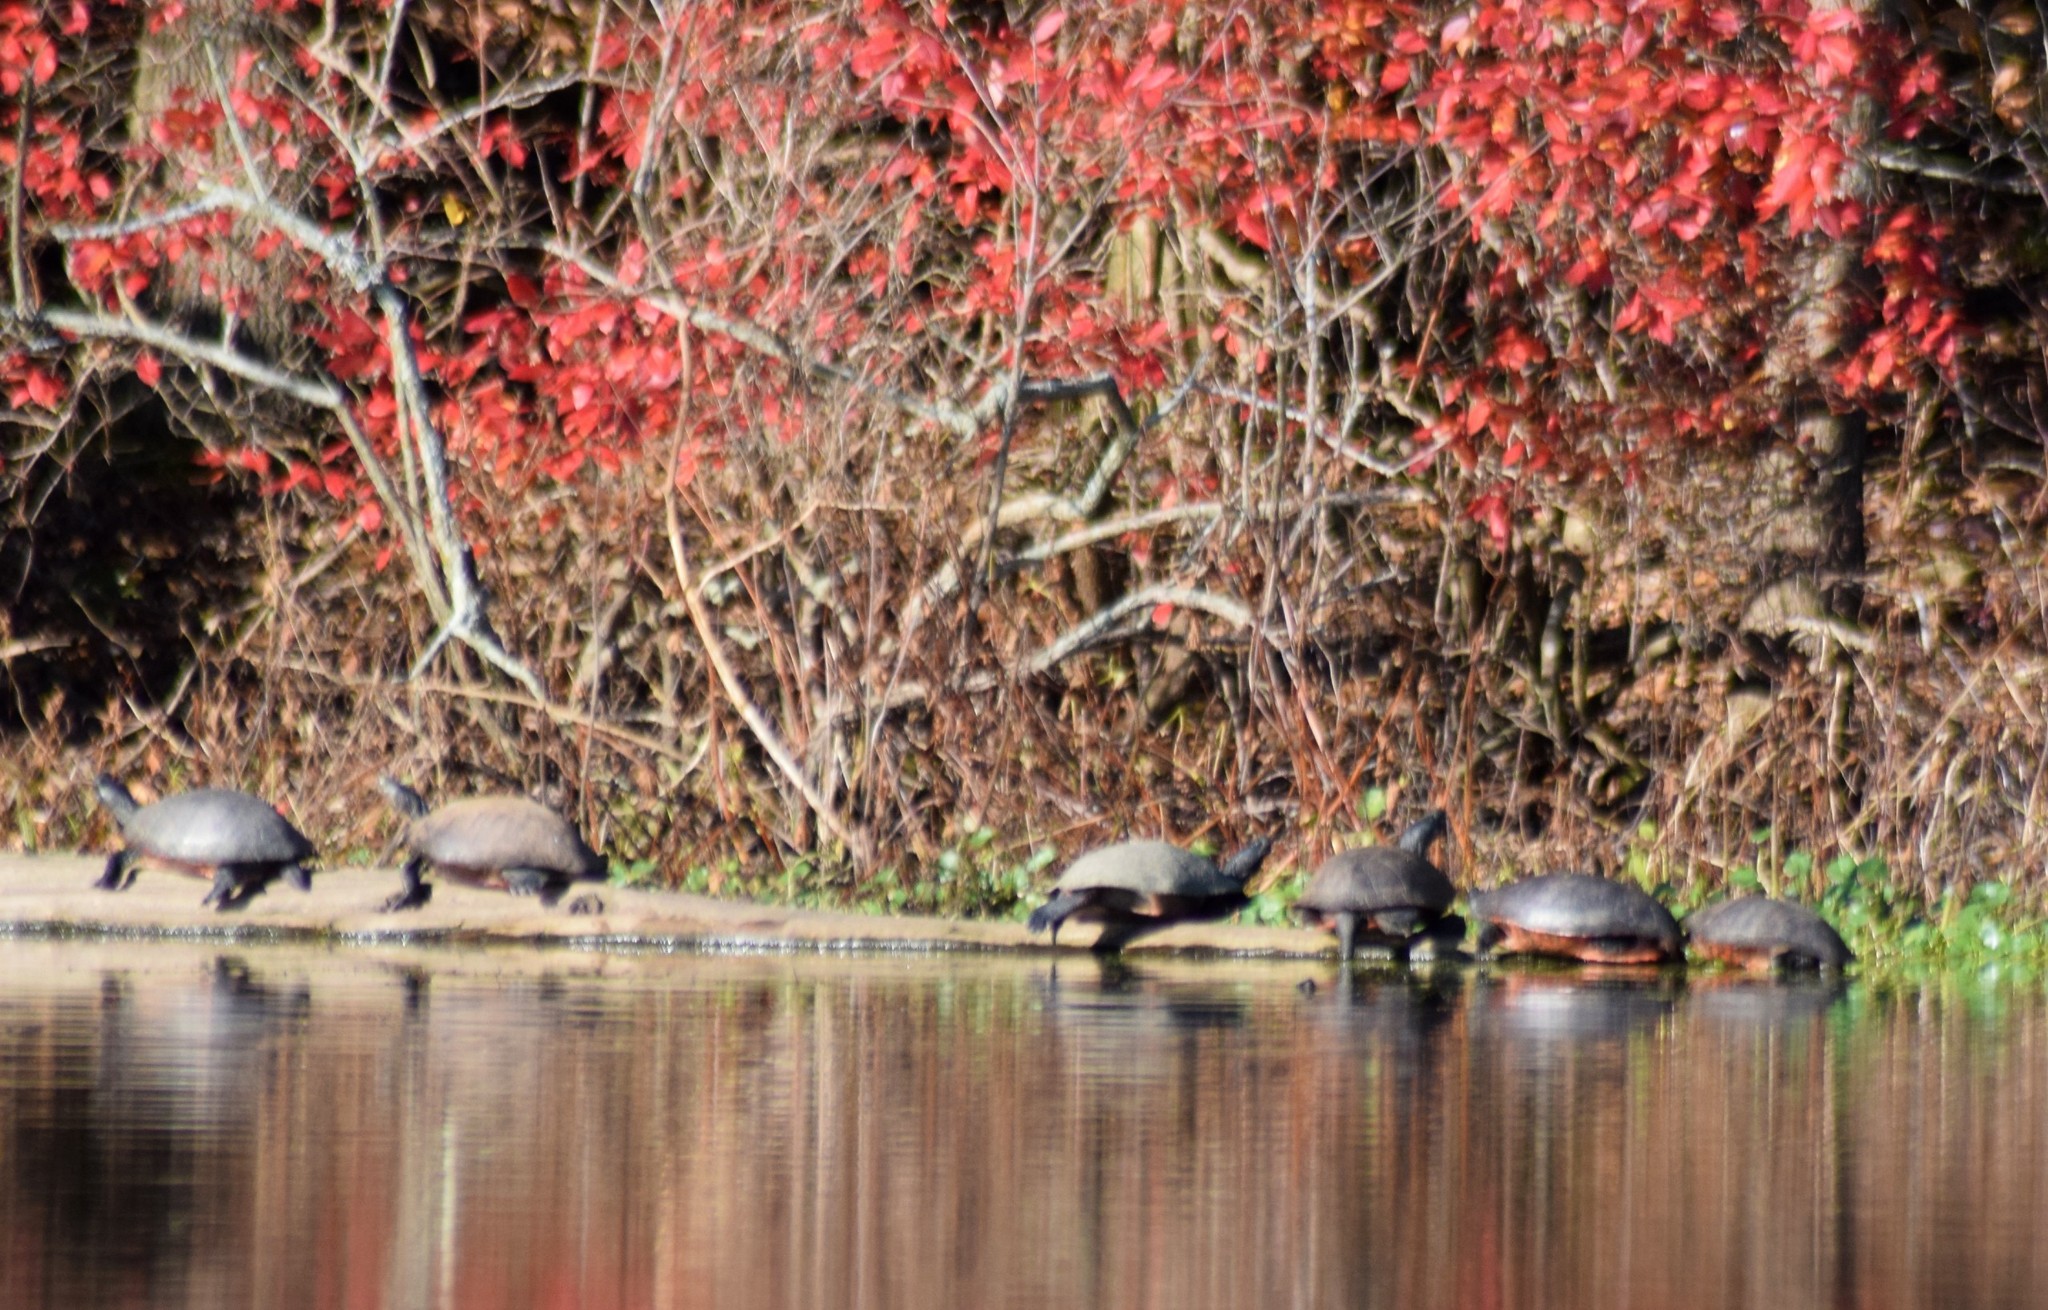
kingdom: Animalia
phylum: Chordata
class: Testudines
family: Emydidae
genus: Pseudemys
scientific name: Pseudemys rubriventris
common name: American red-bellied turtle
